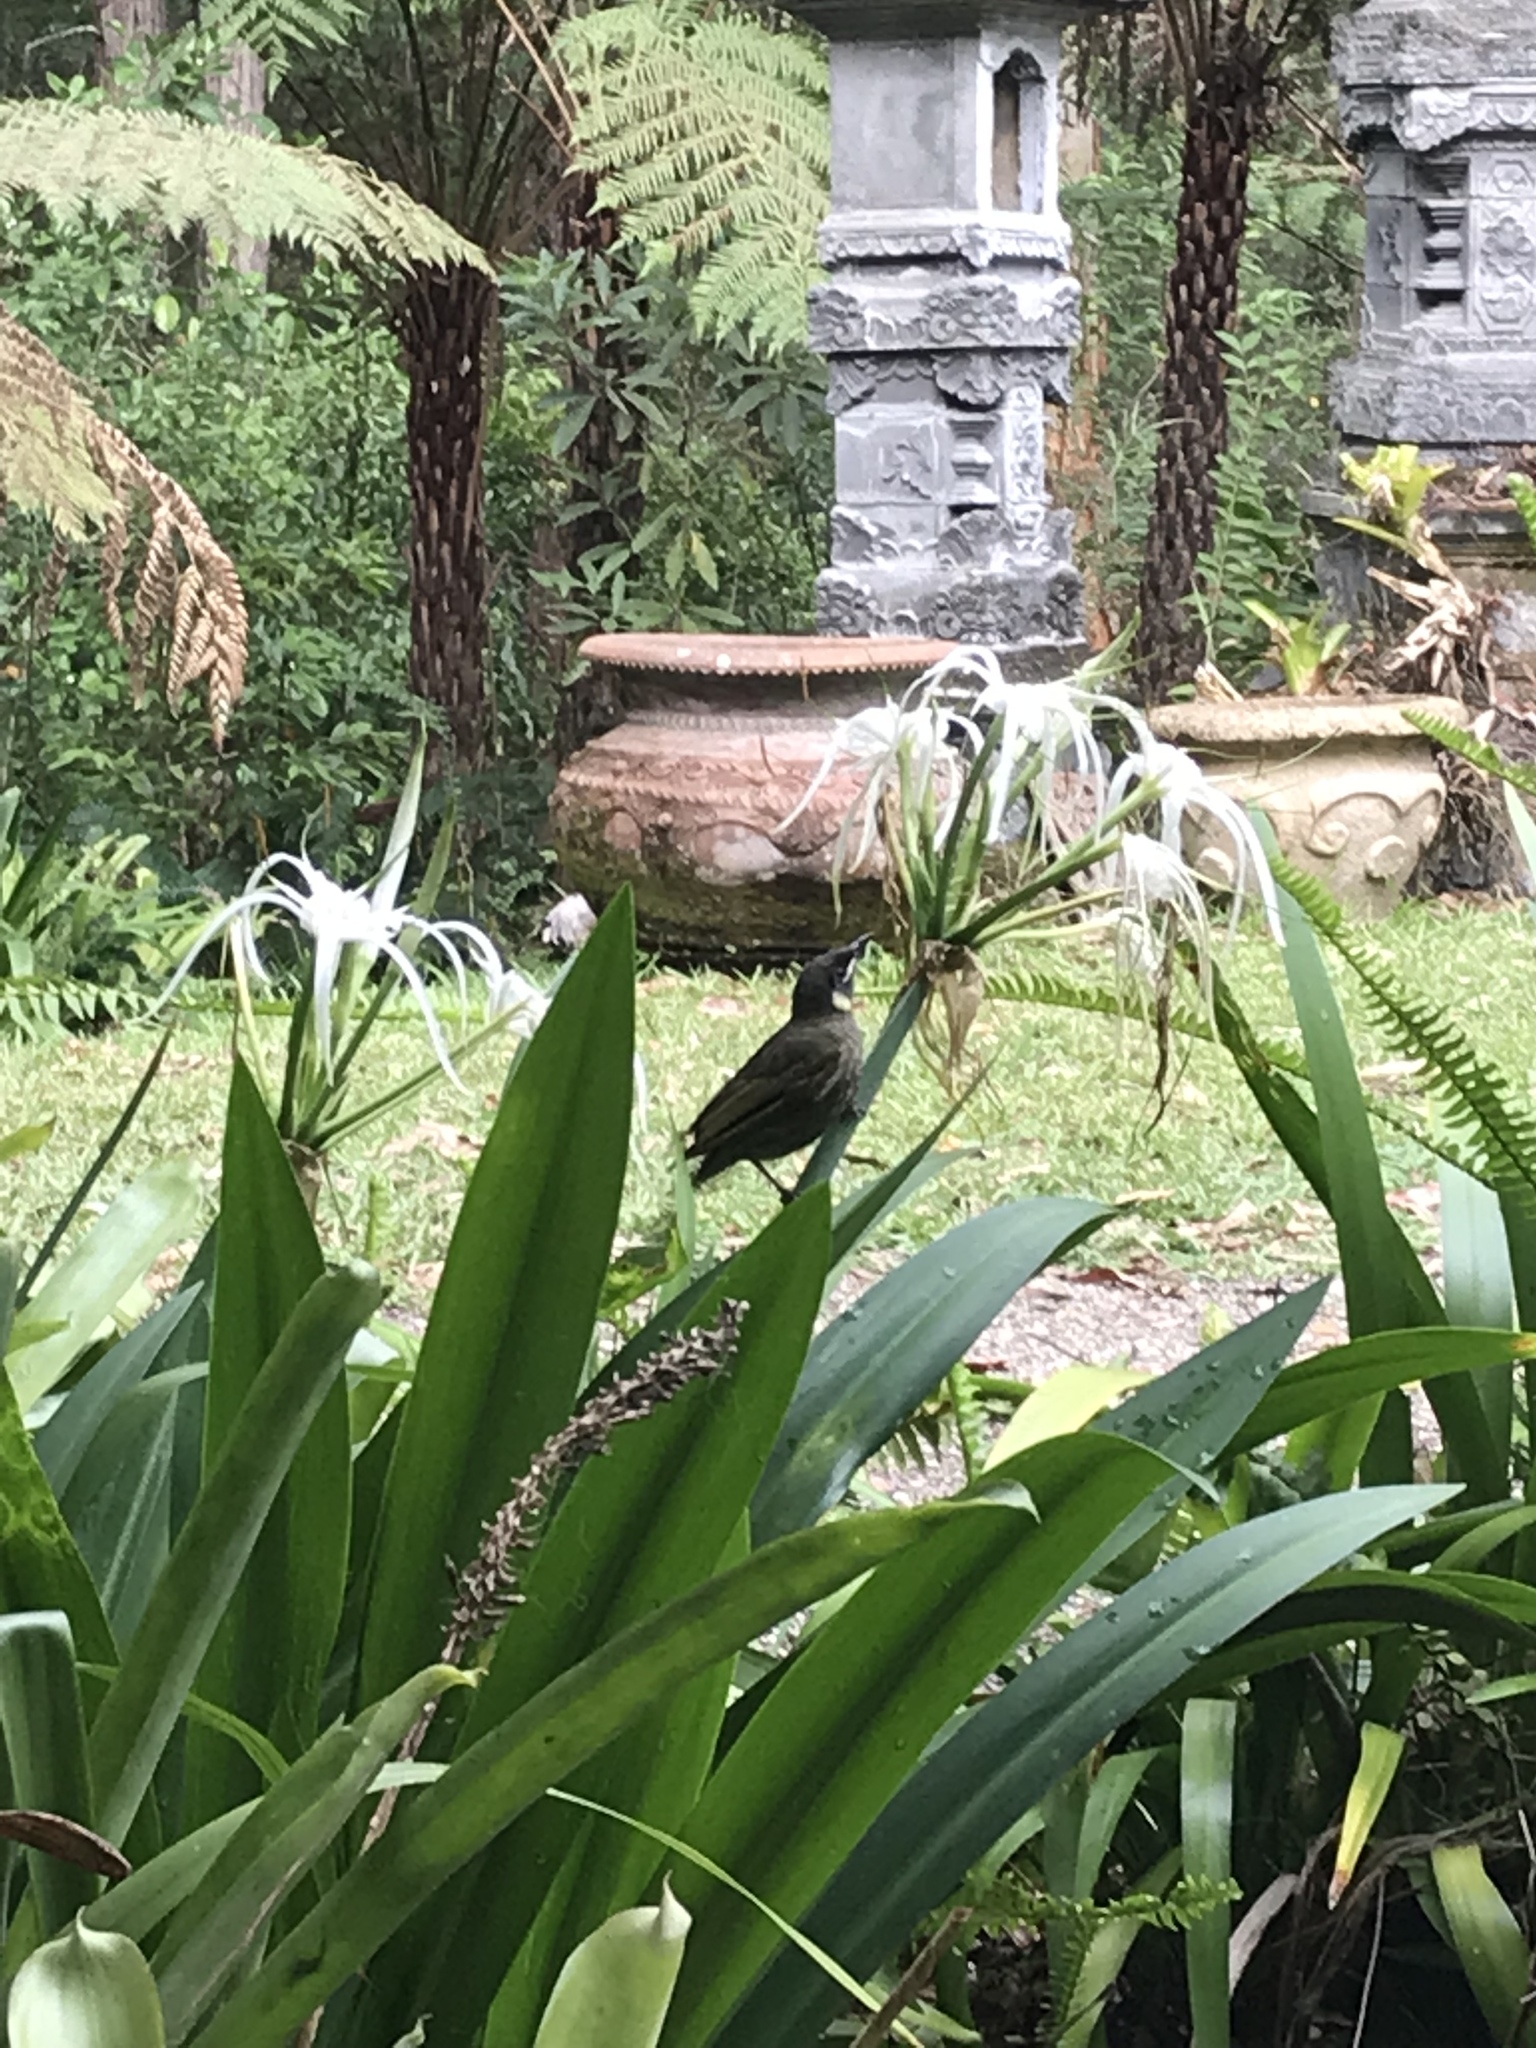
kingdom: Animalia
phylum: Chordata
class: Aves
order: Passeriformes
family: Meliphagidae
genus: Meliphaga
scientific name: Meliphaga lewinii
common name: Lewin's honeyeater
